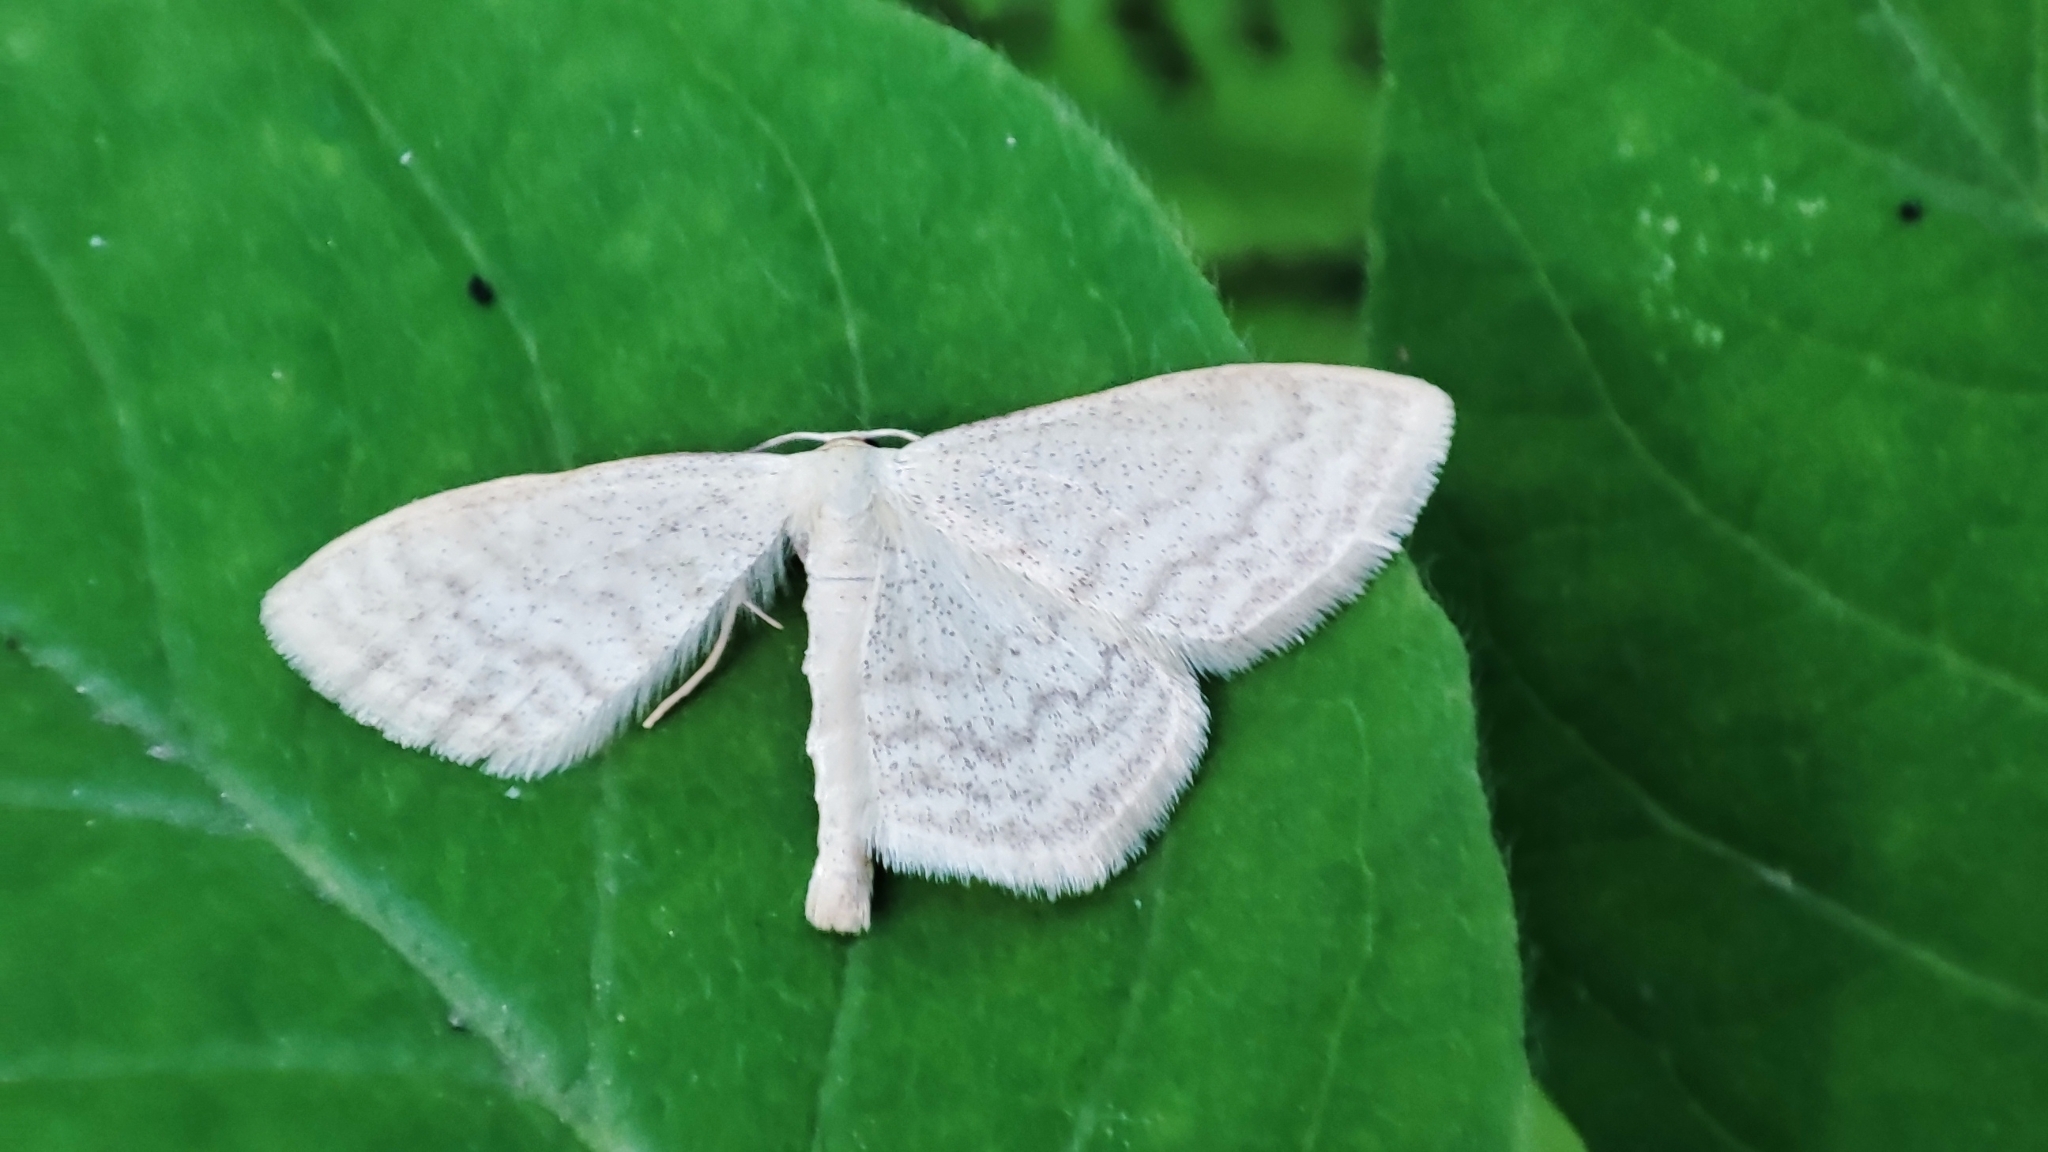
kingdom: Animalia
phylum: Arthropoda
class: Insecta
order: Lepidoptera
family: Geometridae
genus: Scopula
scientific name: Scopula floslactata
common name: Cream wave
